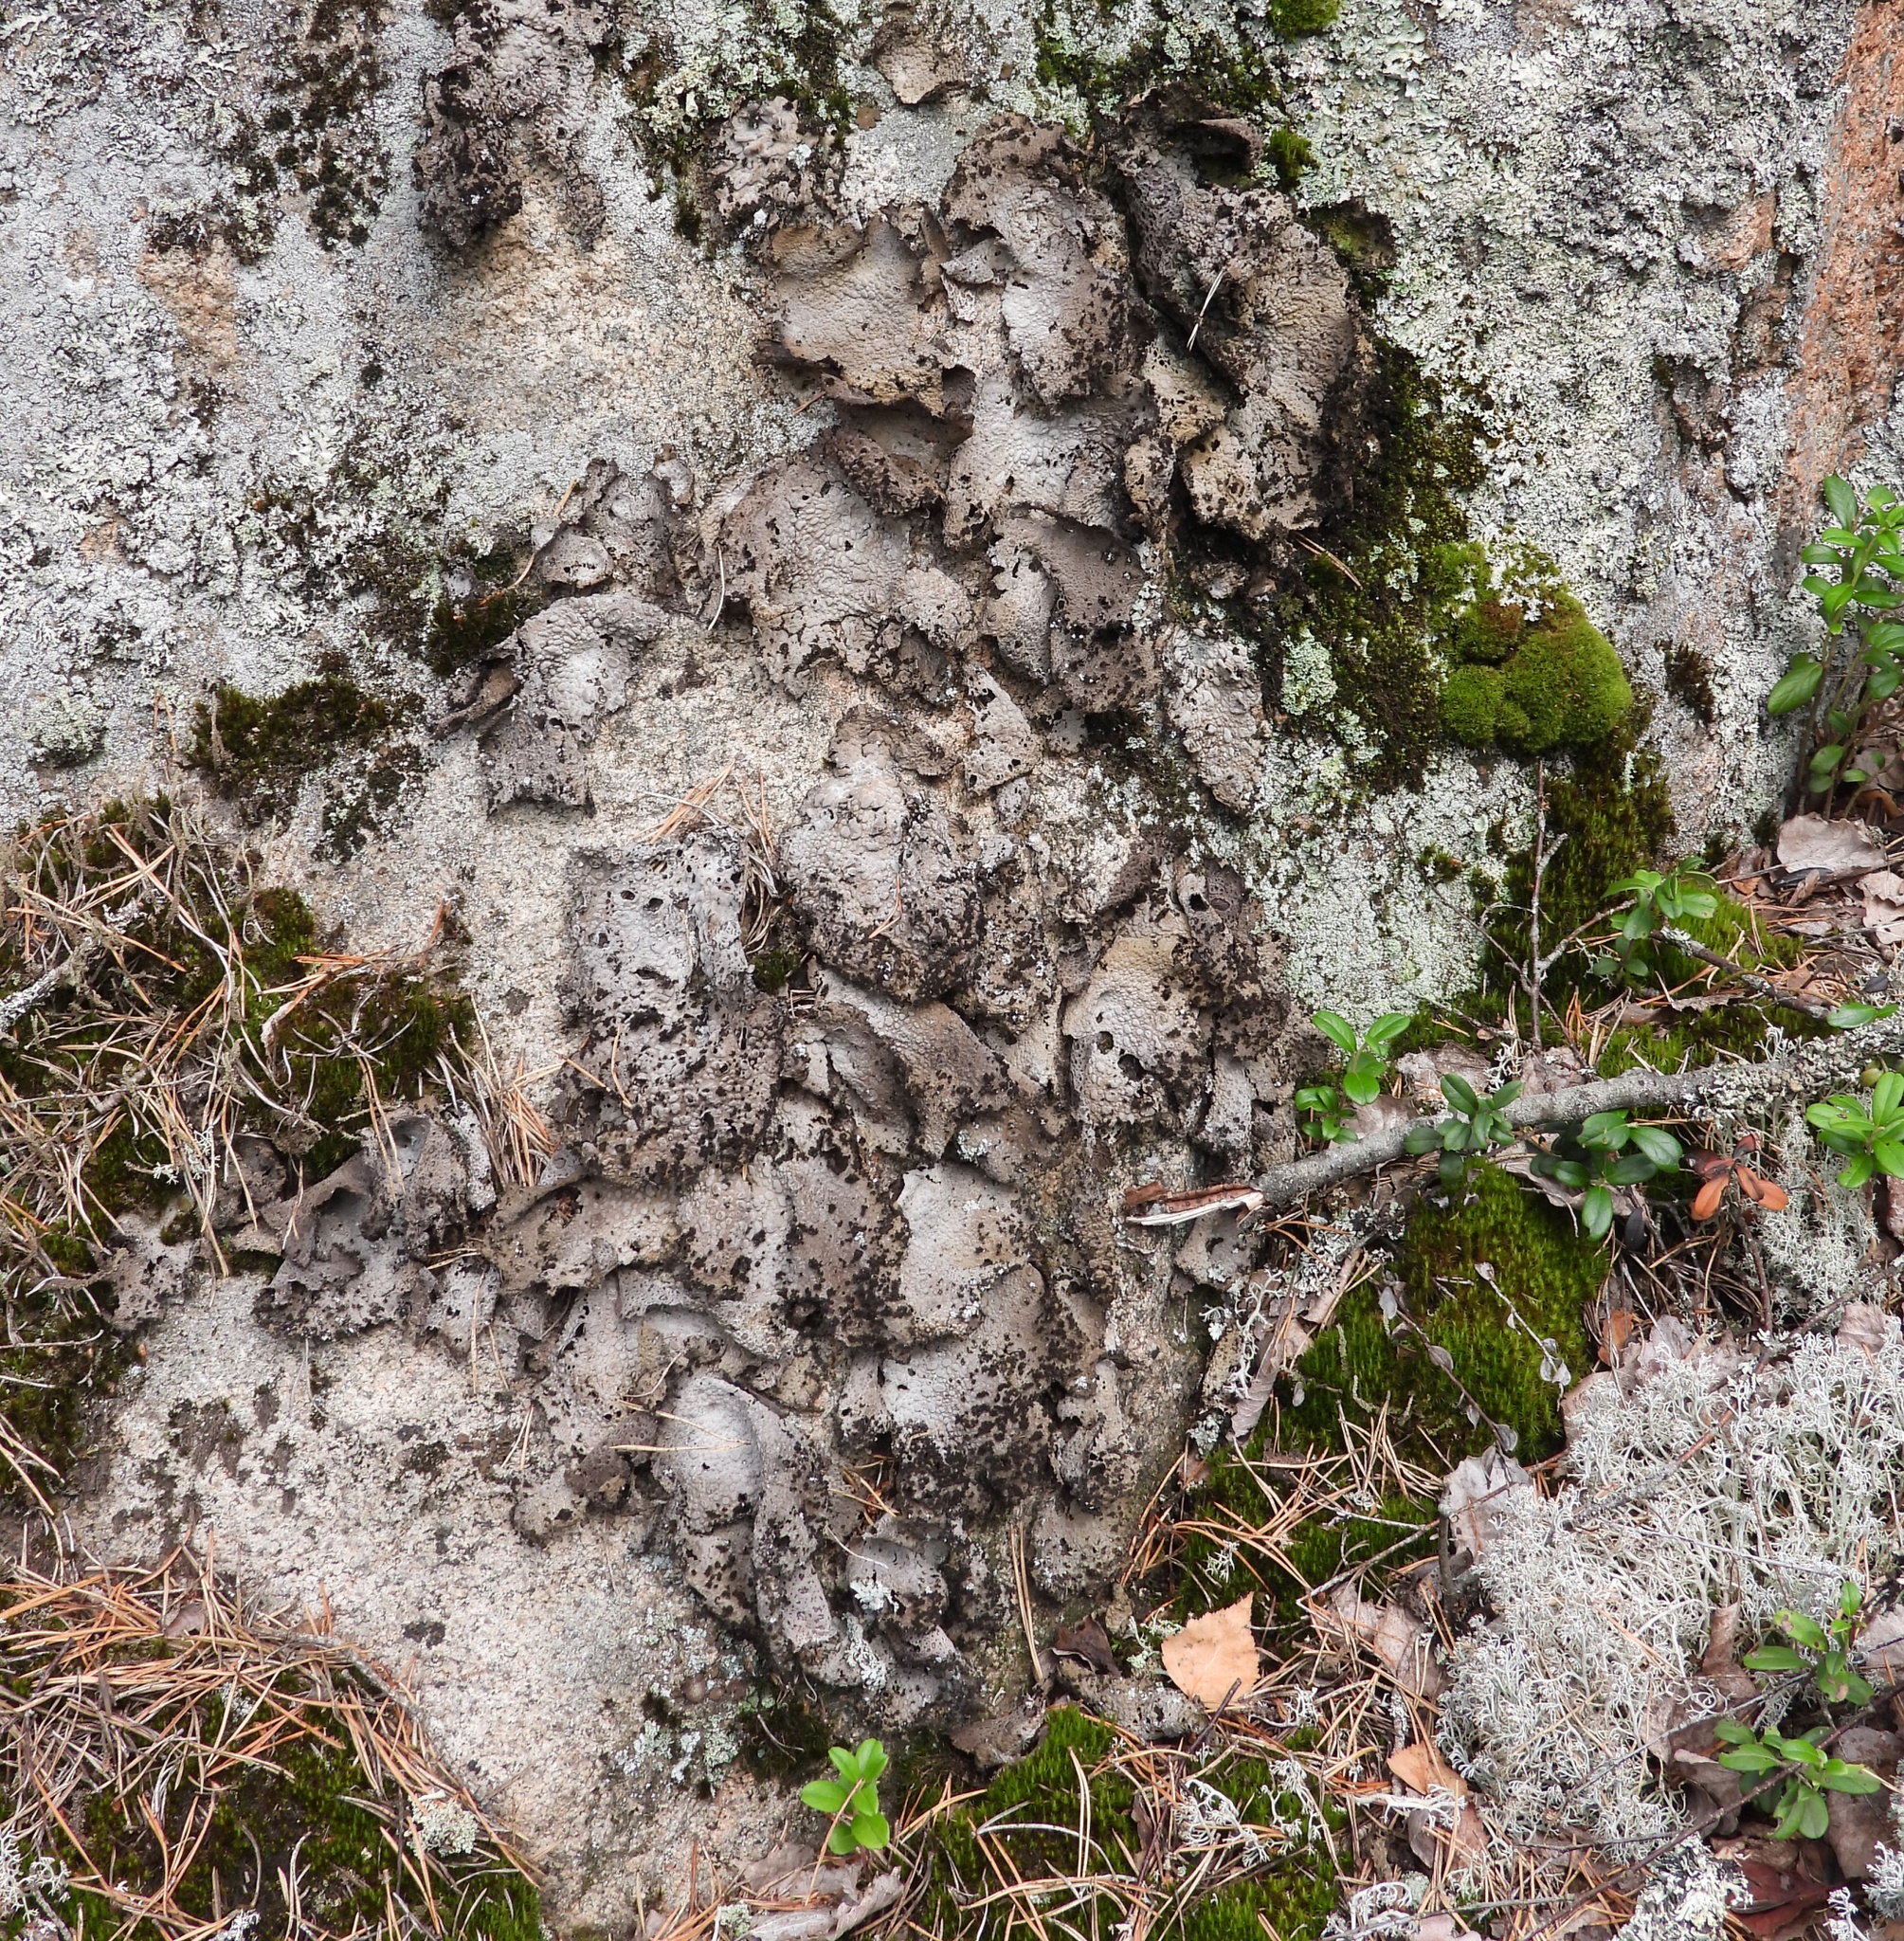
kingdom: Fungi
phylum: Ascomycota
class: Lecanoromycetes
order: Umbilicariales
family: Umbilicariaceae
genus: Lasallia
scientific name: Lasallia pustulata
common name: Blistered toadskin lichen
